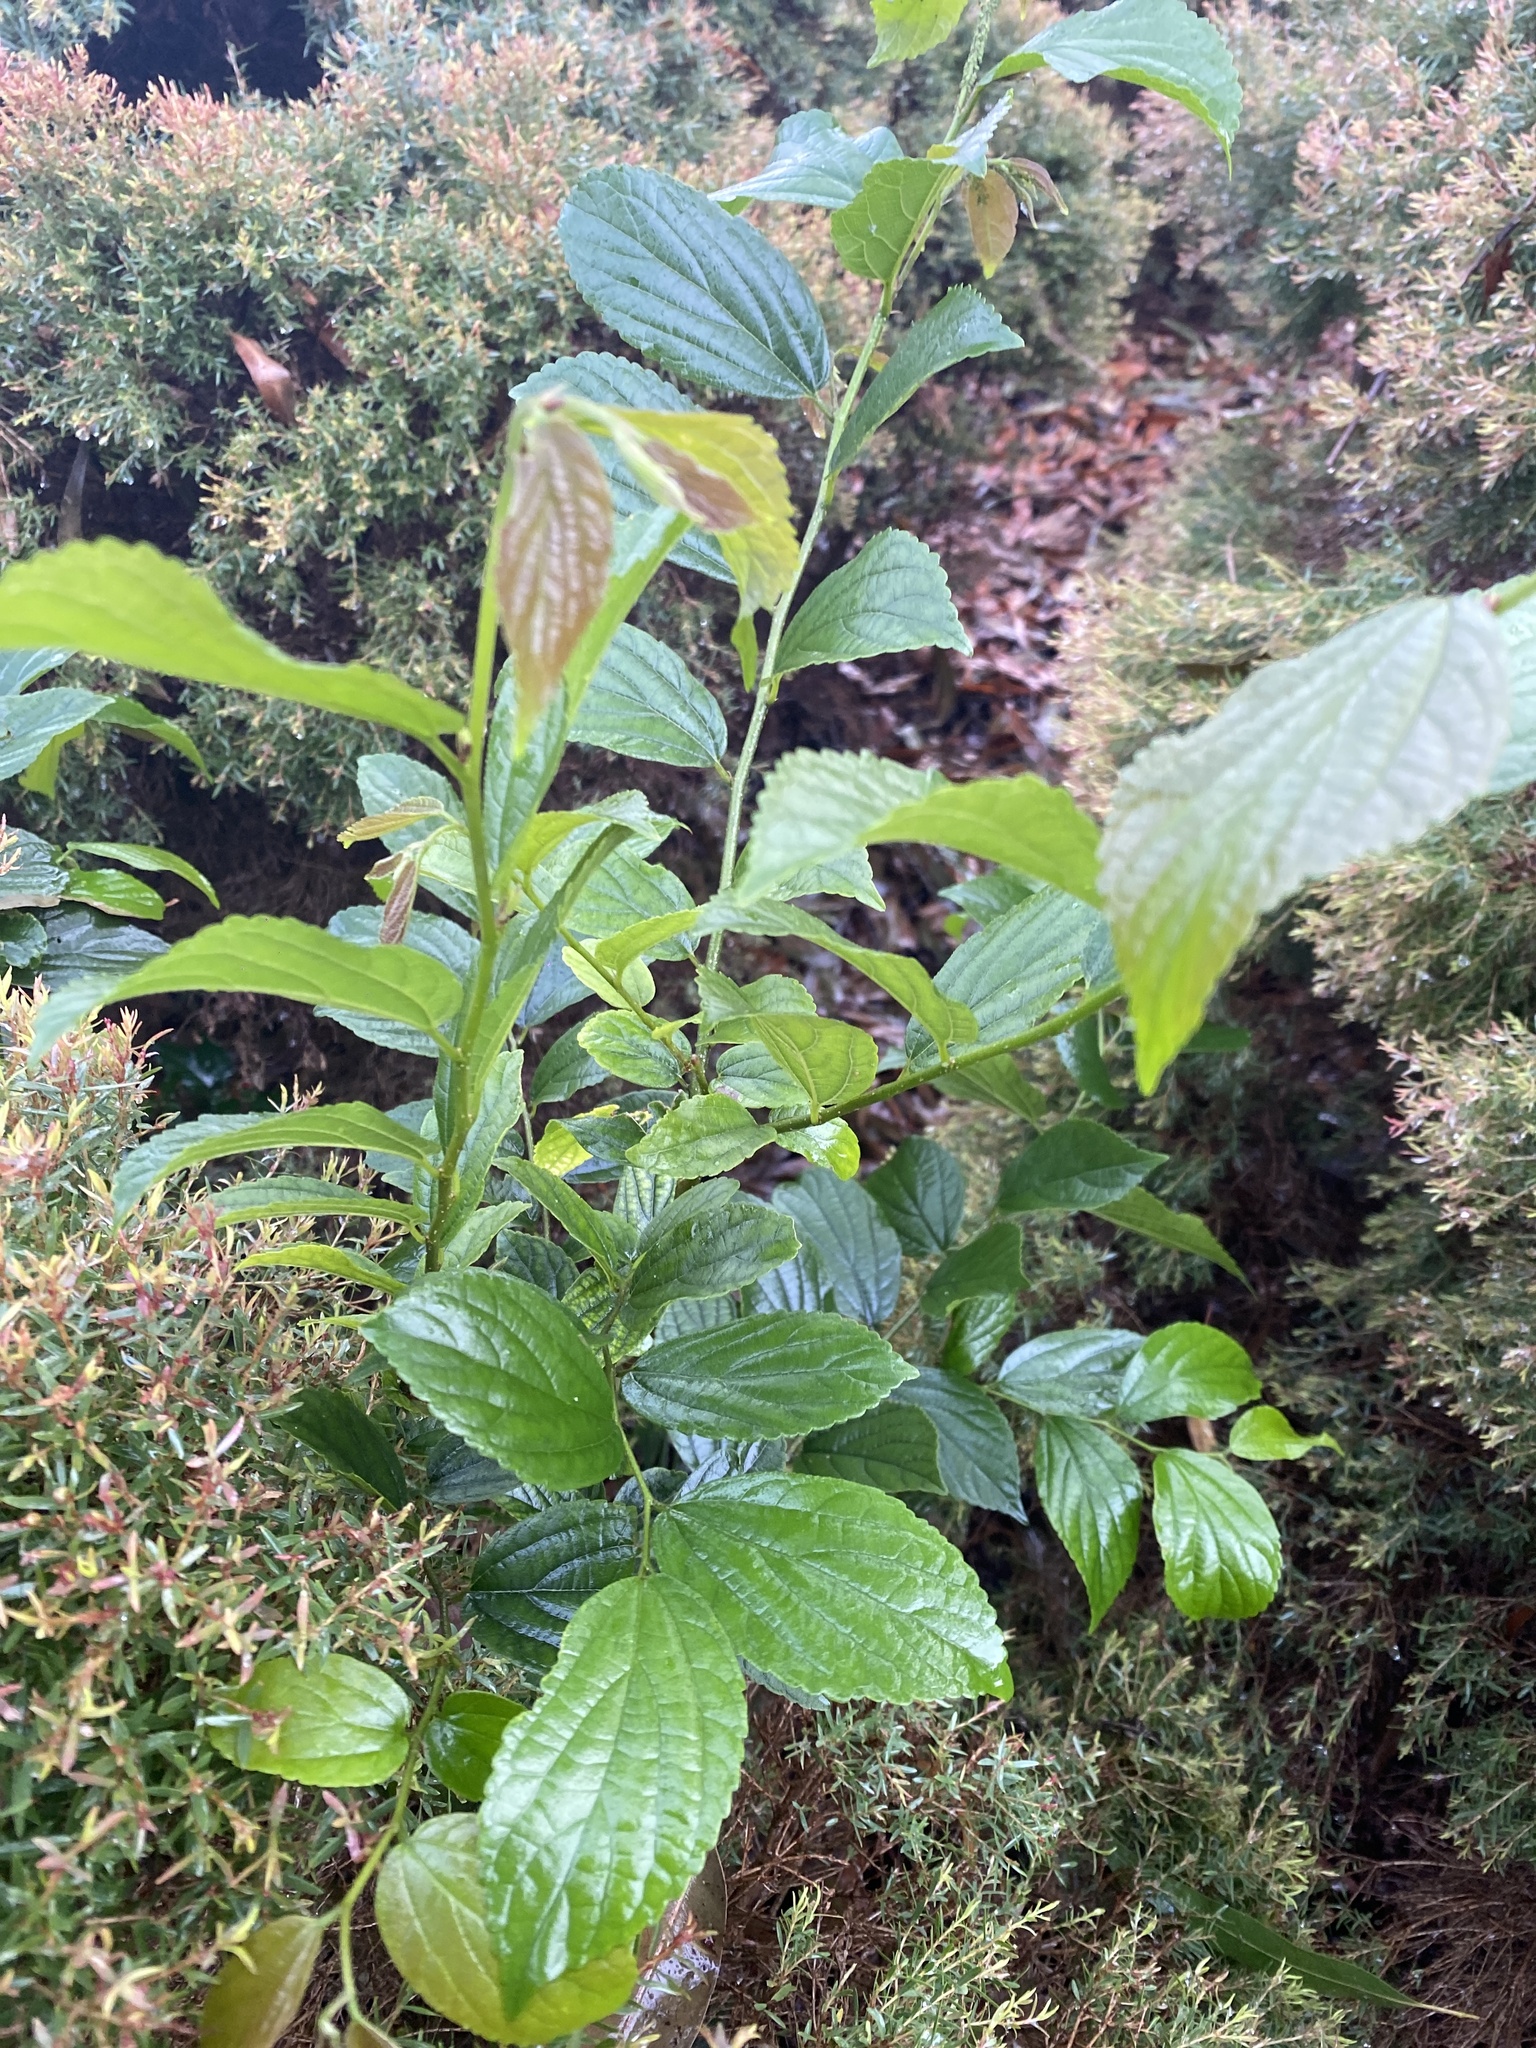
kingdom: Plantae
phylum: Tracheophyta
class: Magnoliopsida
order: Rosales
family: Cannabaceae
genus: Celtis
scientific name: Celtis sinensis
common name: Chinese hackberry
